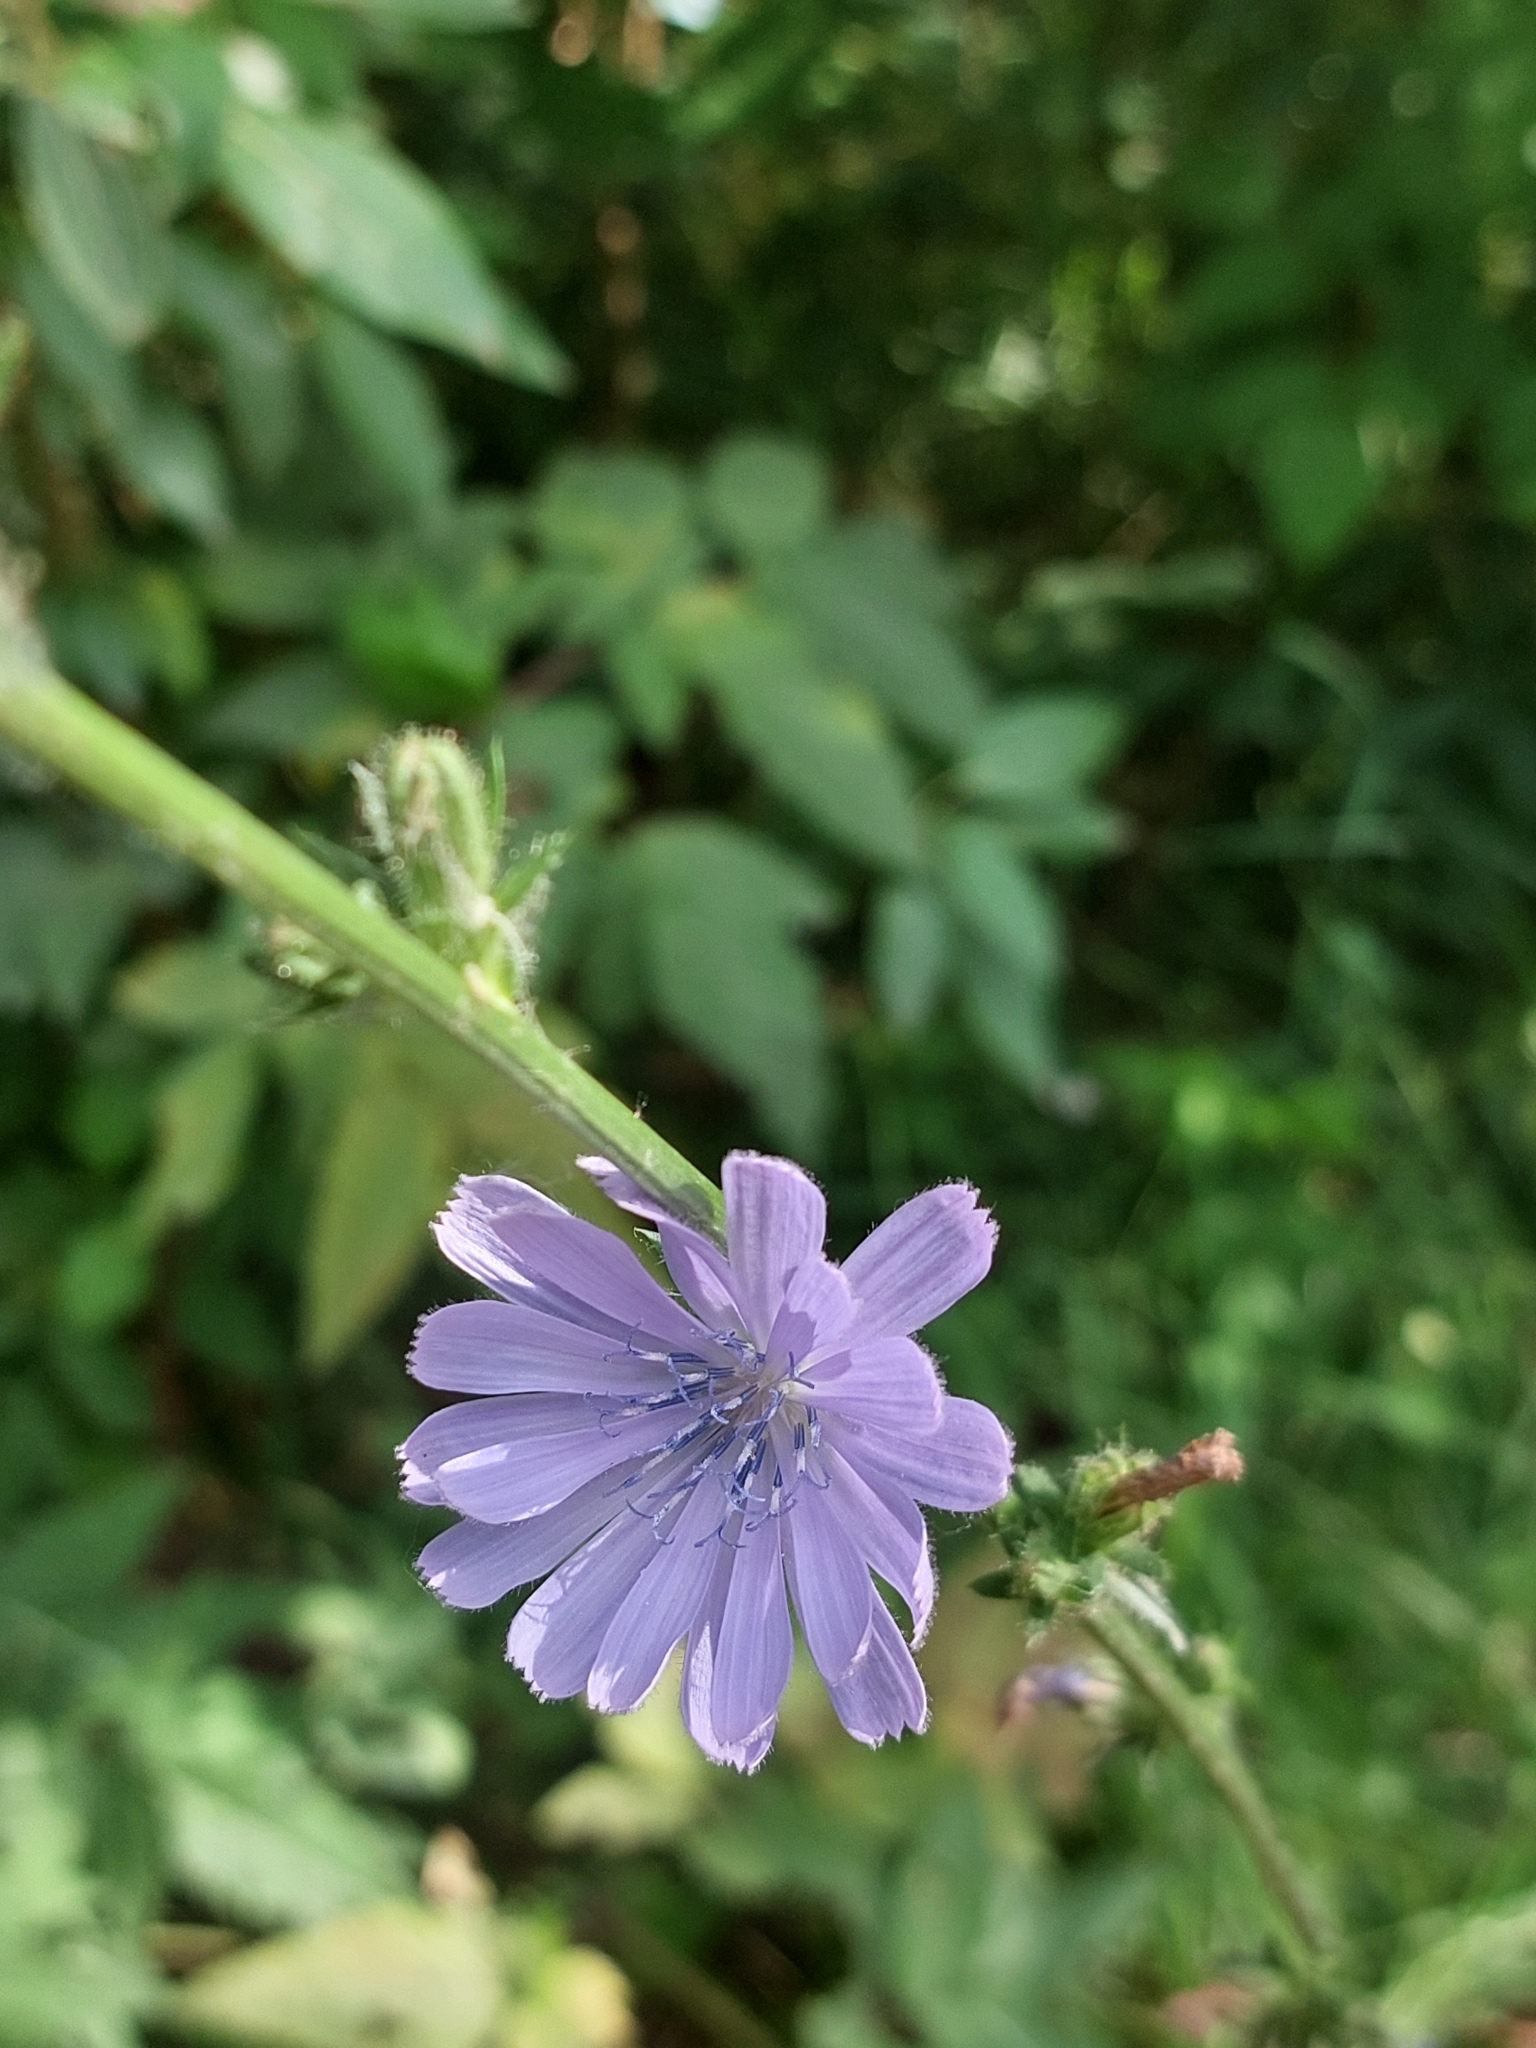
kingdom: Plantae
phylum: Tracheophyta
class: Magnoliopsida
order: Asterales
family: Asteraceae
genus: Cichorium
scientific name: Cichorium intybus
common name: Chicory
